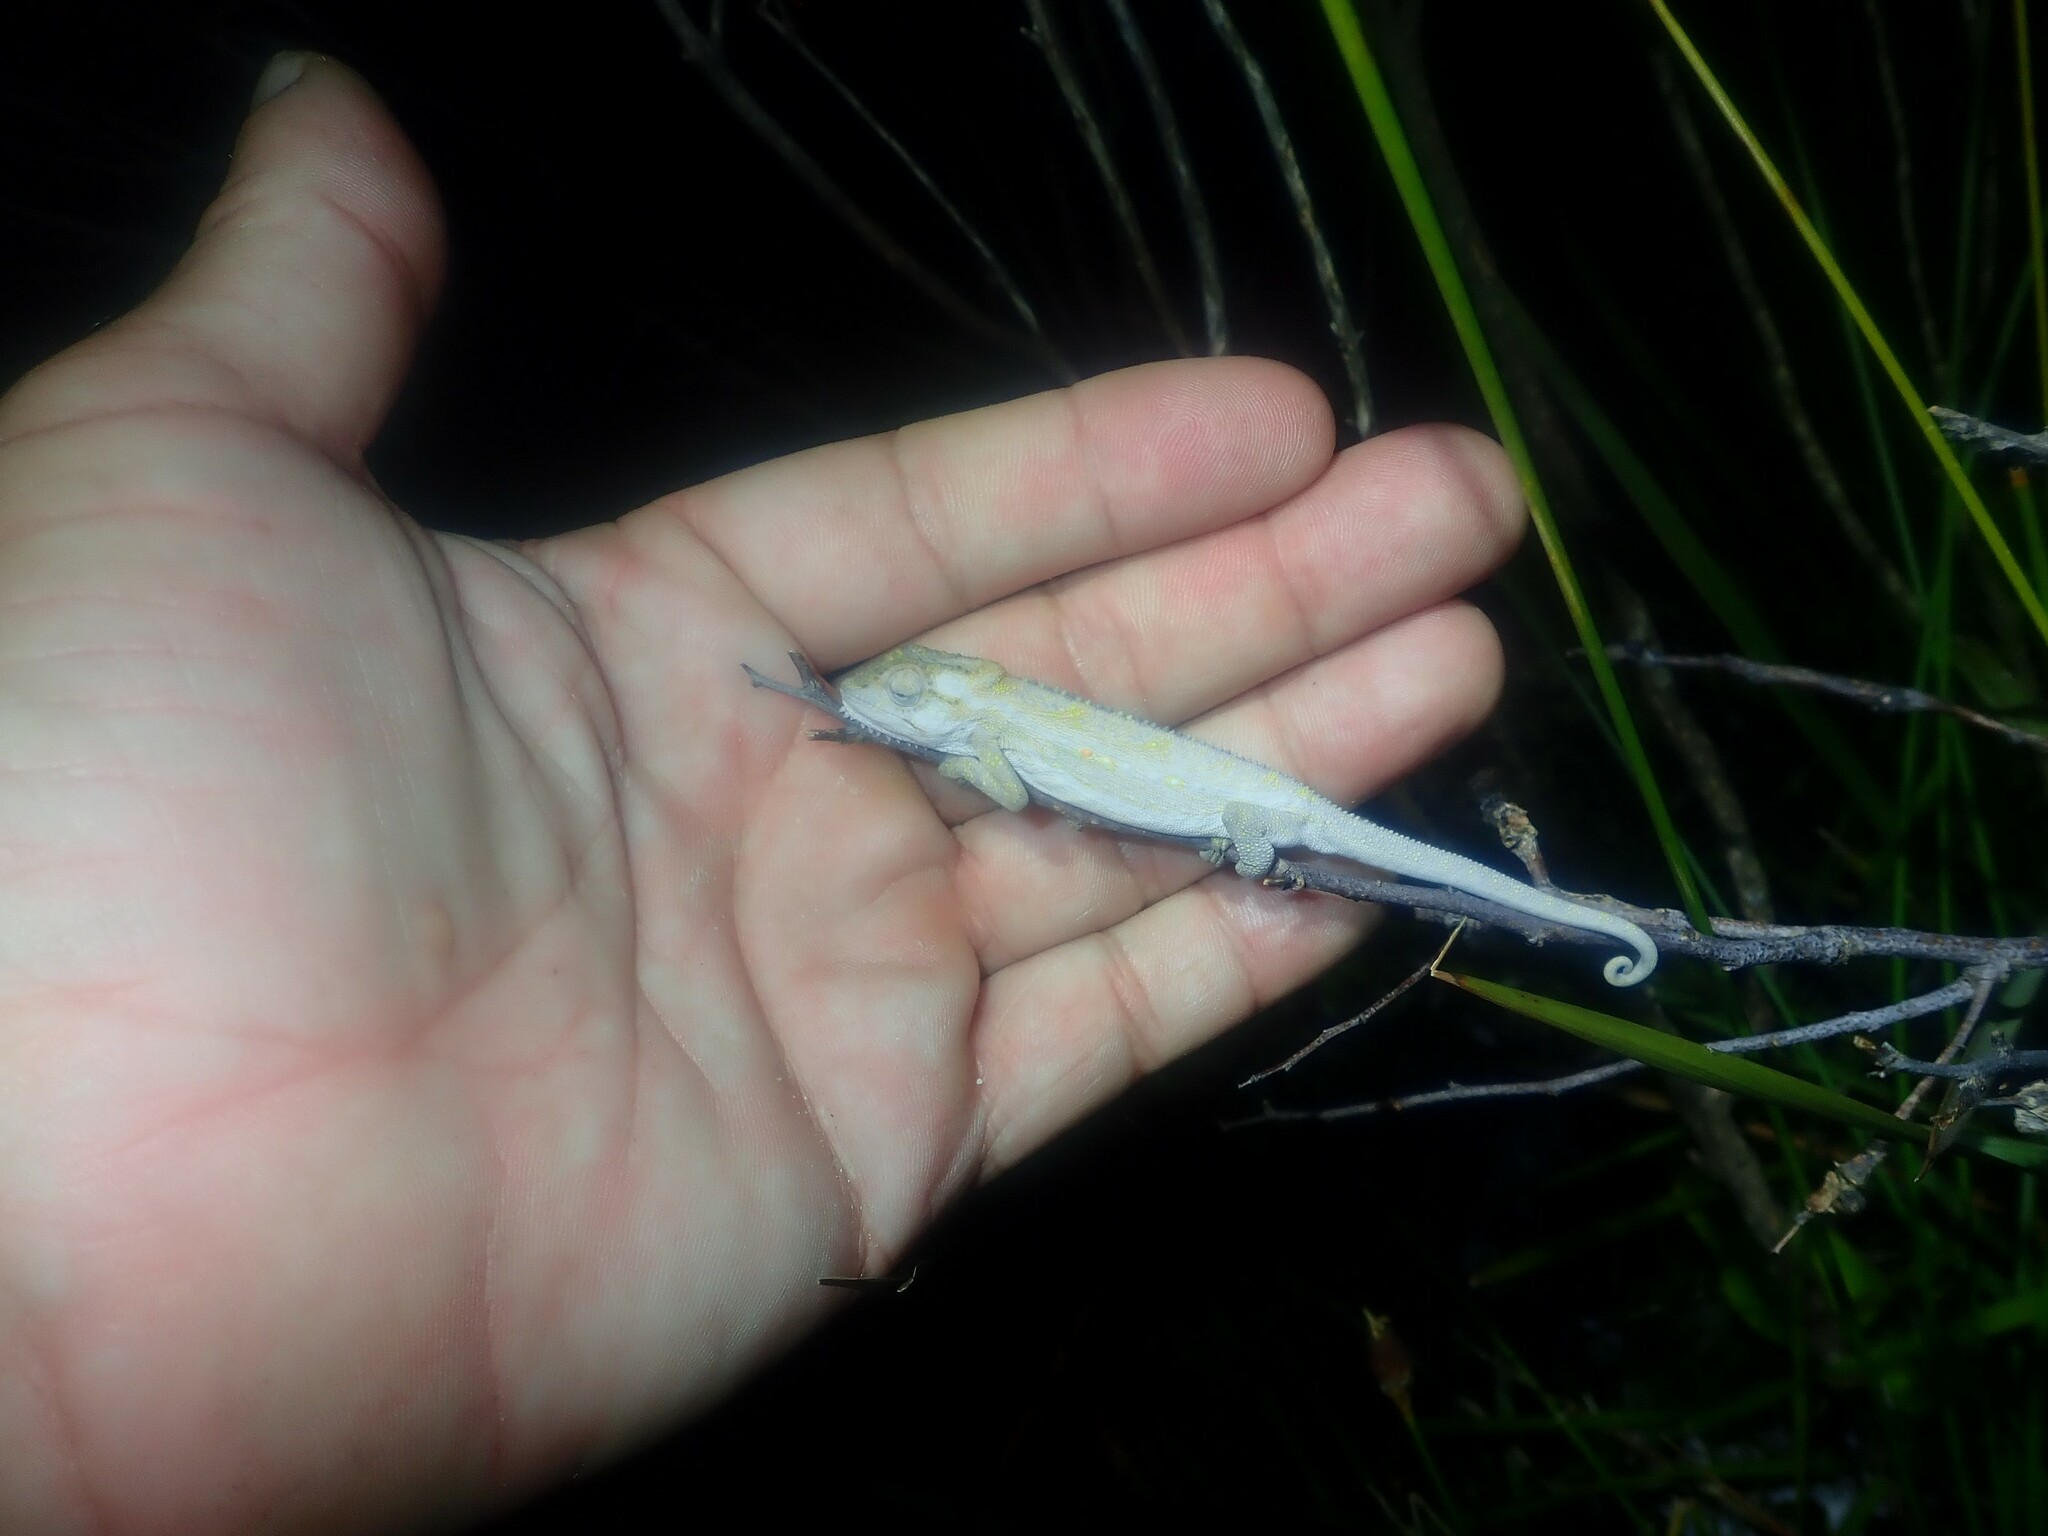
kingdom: Animalia
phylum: Chordata
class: Squamata
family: Chamaeleonidae
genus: Bradypodion
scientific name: Bradypodion pumilum
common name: Cape dwarf chameleon
